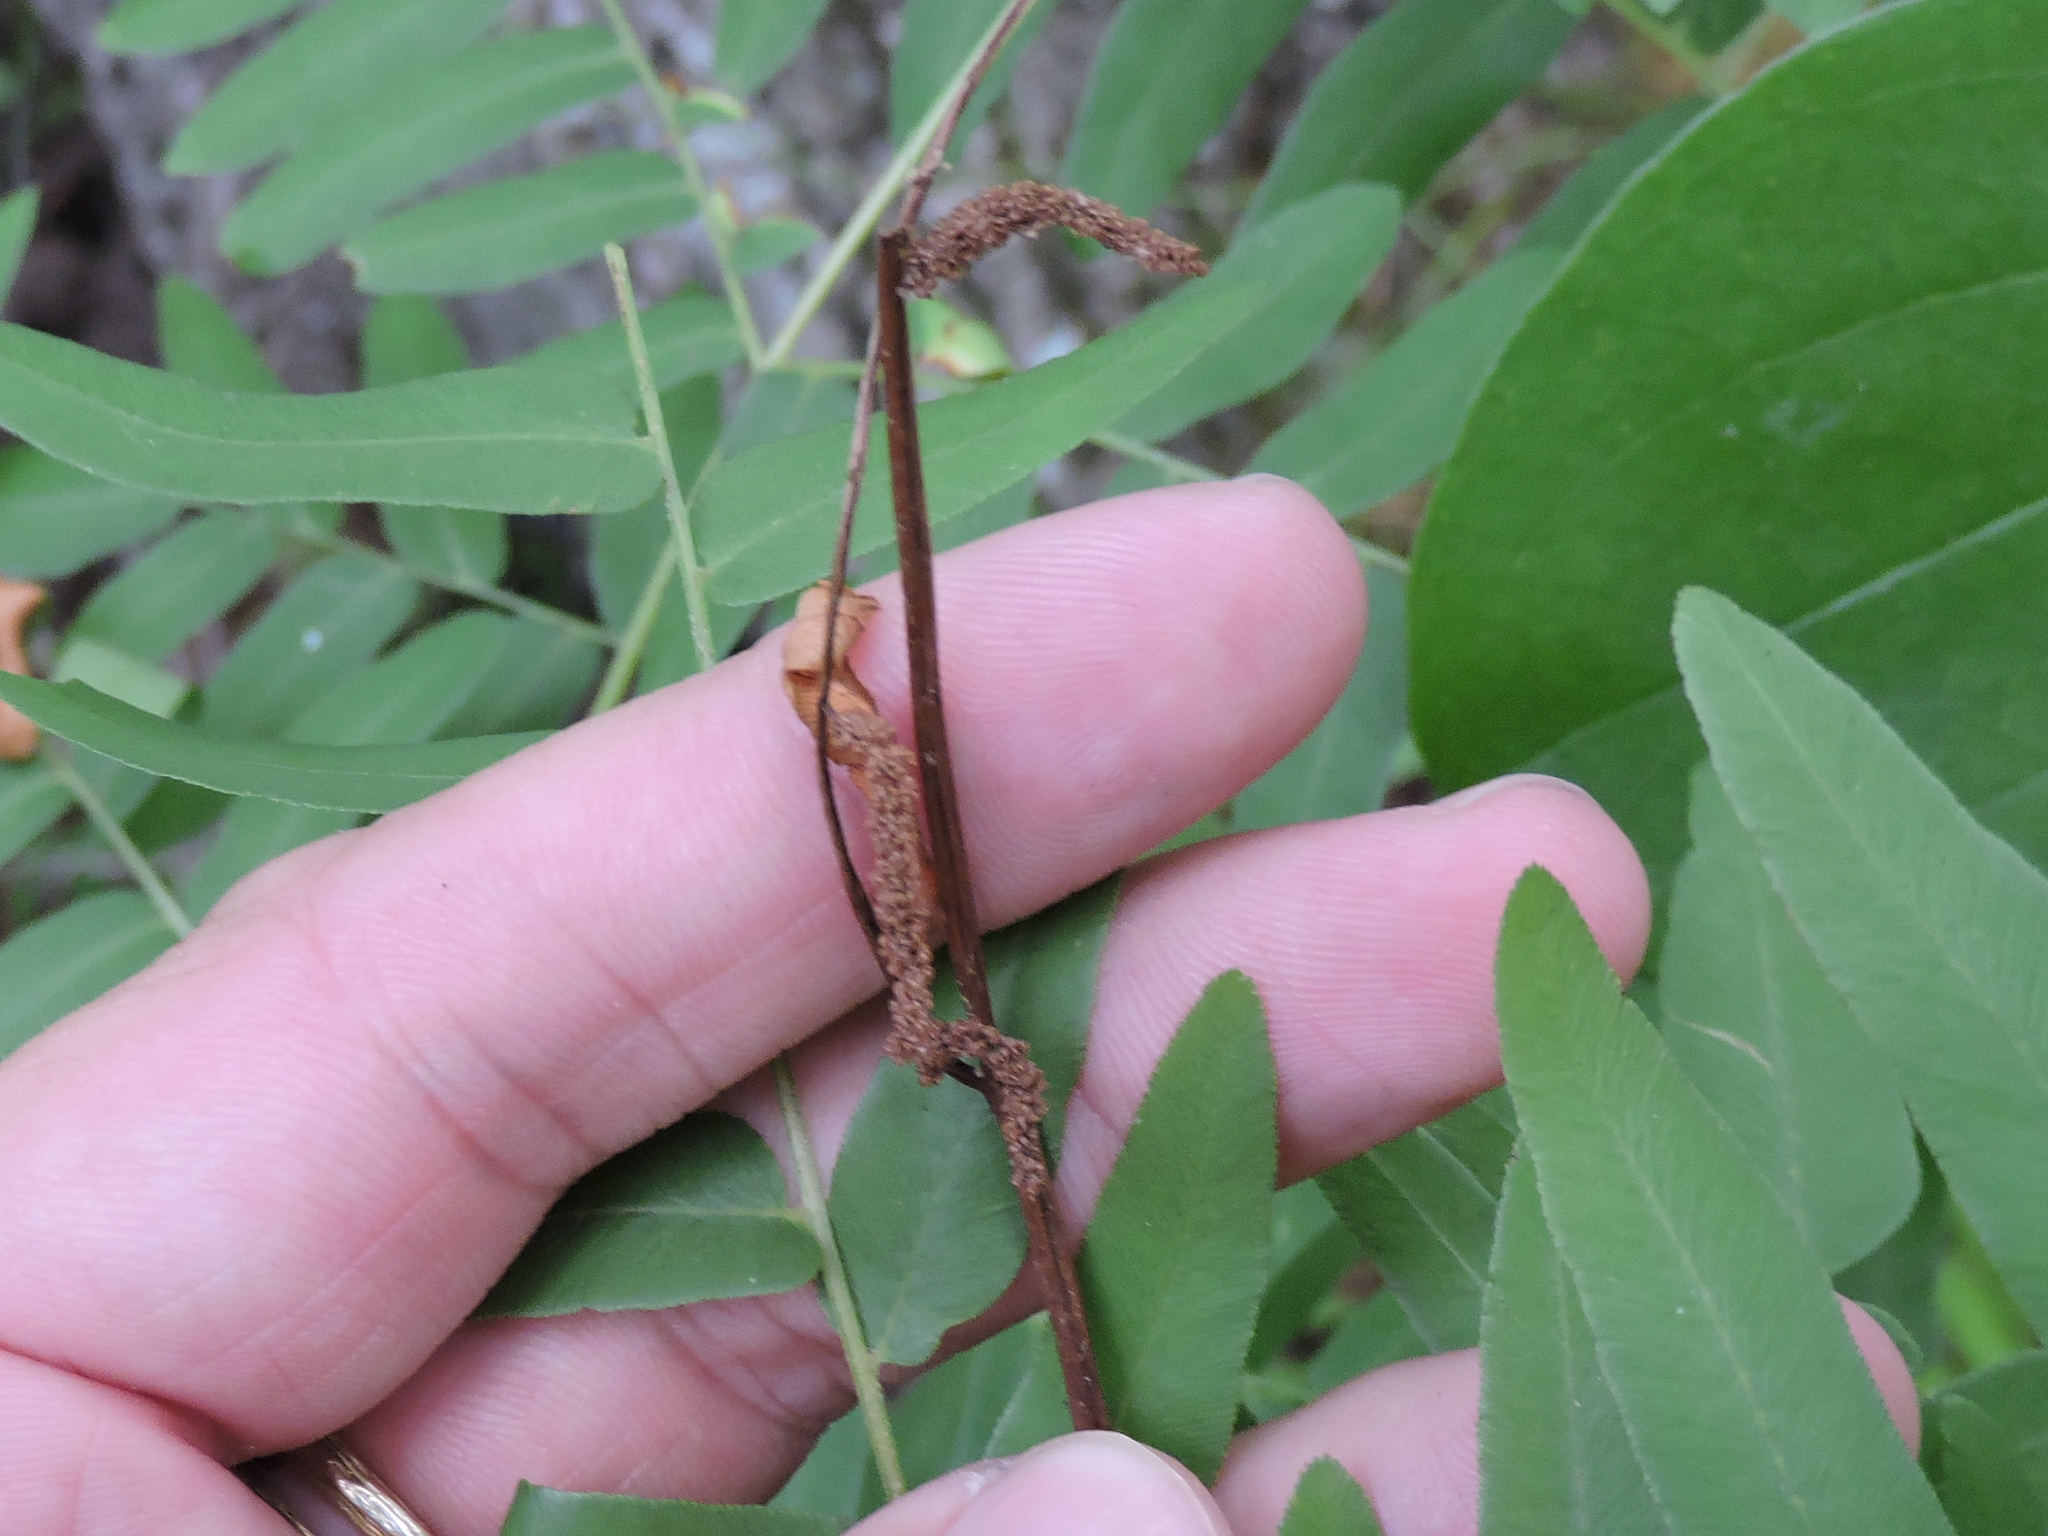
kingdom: Plantae
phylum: Tracheophyta
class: Polypodiopsida
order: Osmundales
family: Osmundaceae
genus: Osmunda
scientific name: Osmunda spectabilis
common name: American royal fern
